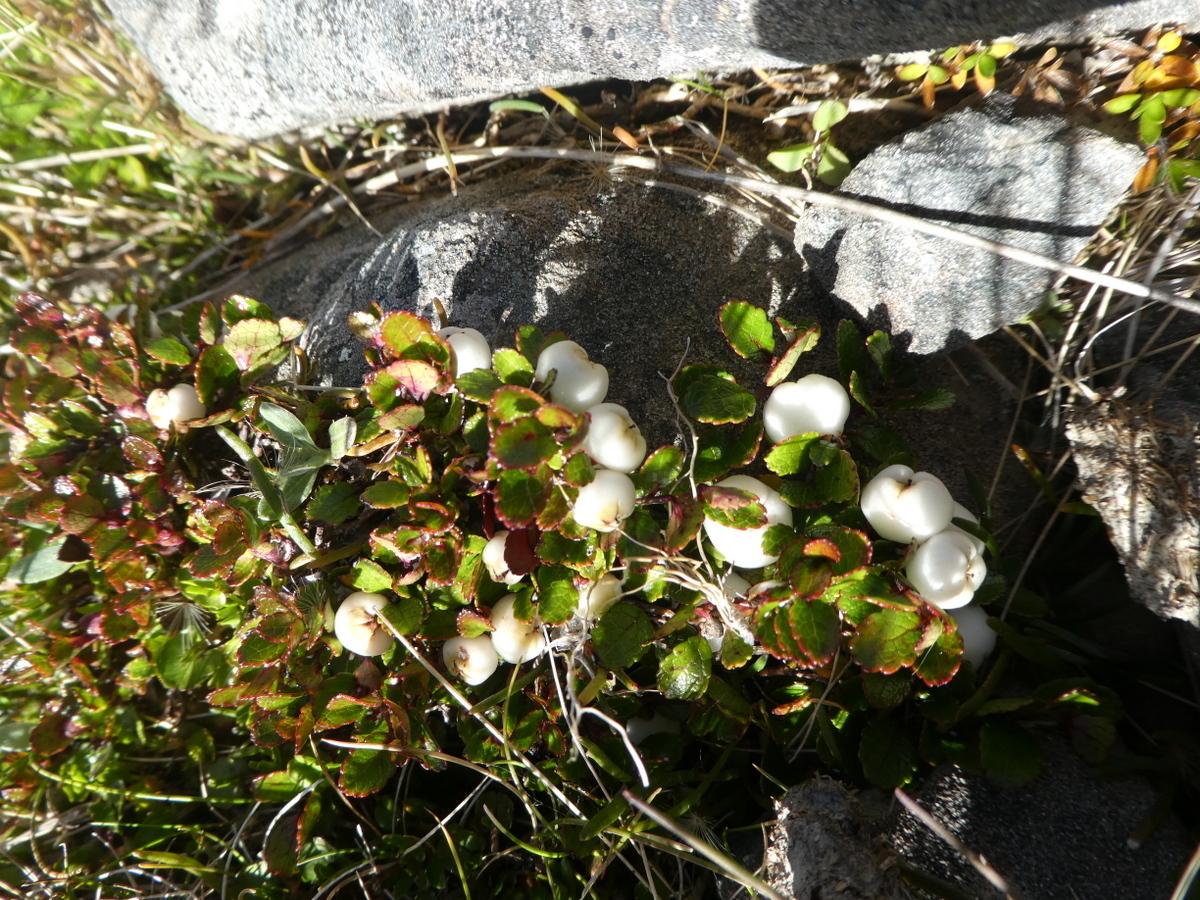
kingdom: Plantae
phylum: Tracheophyta
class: Magnoliopsida
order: Ericales
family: Ericaceae
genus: Gaultheria
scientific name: Gaultheria depressa
